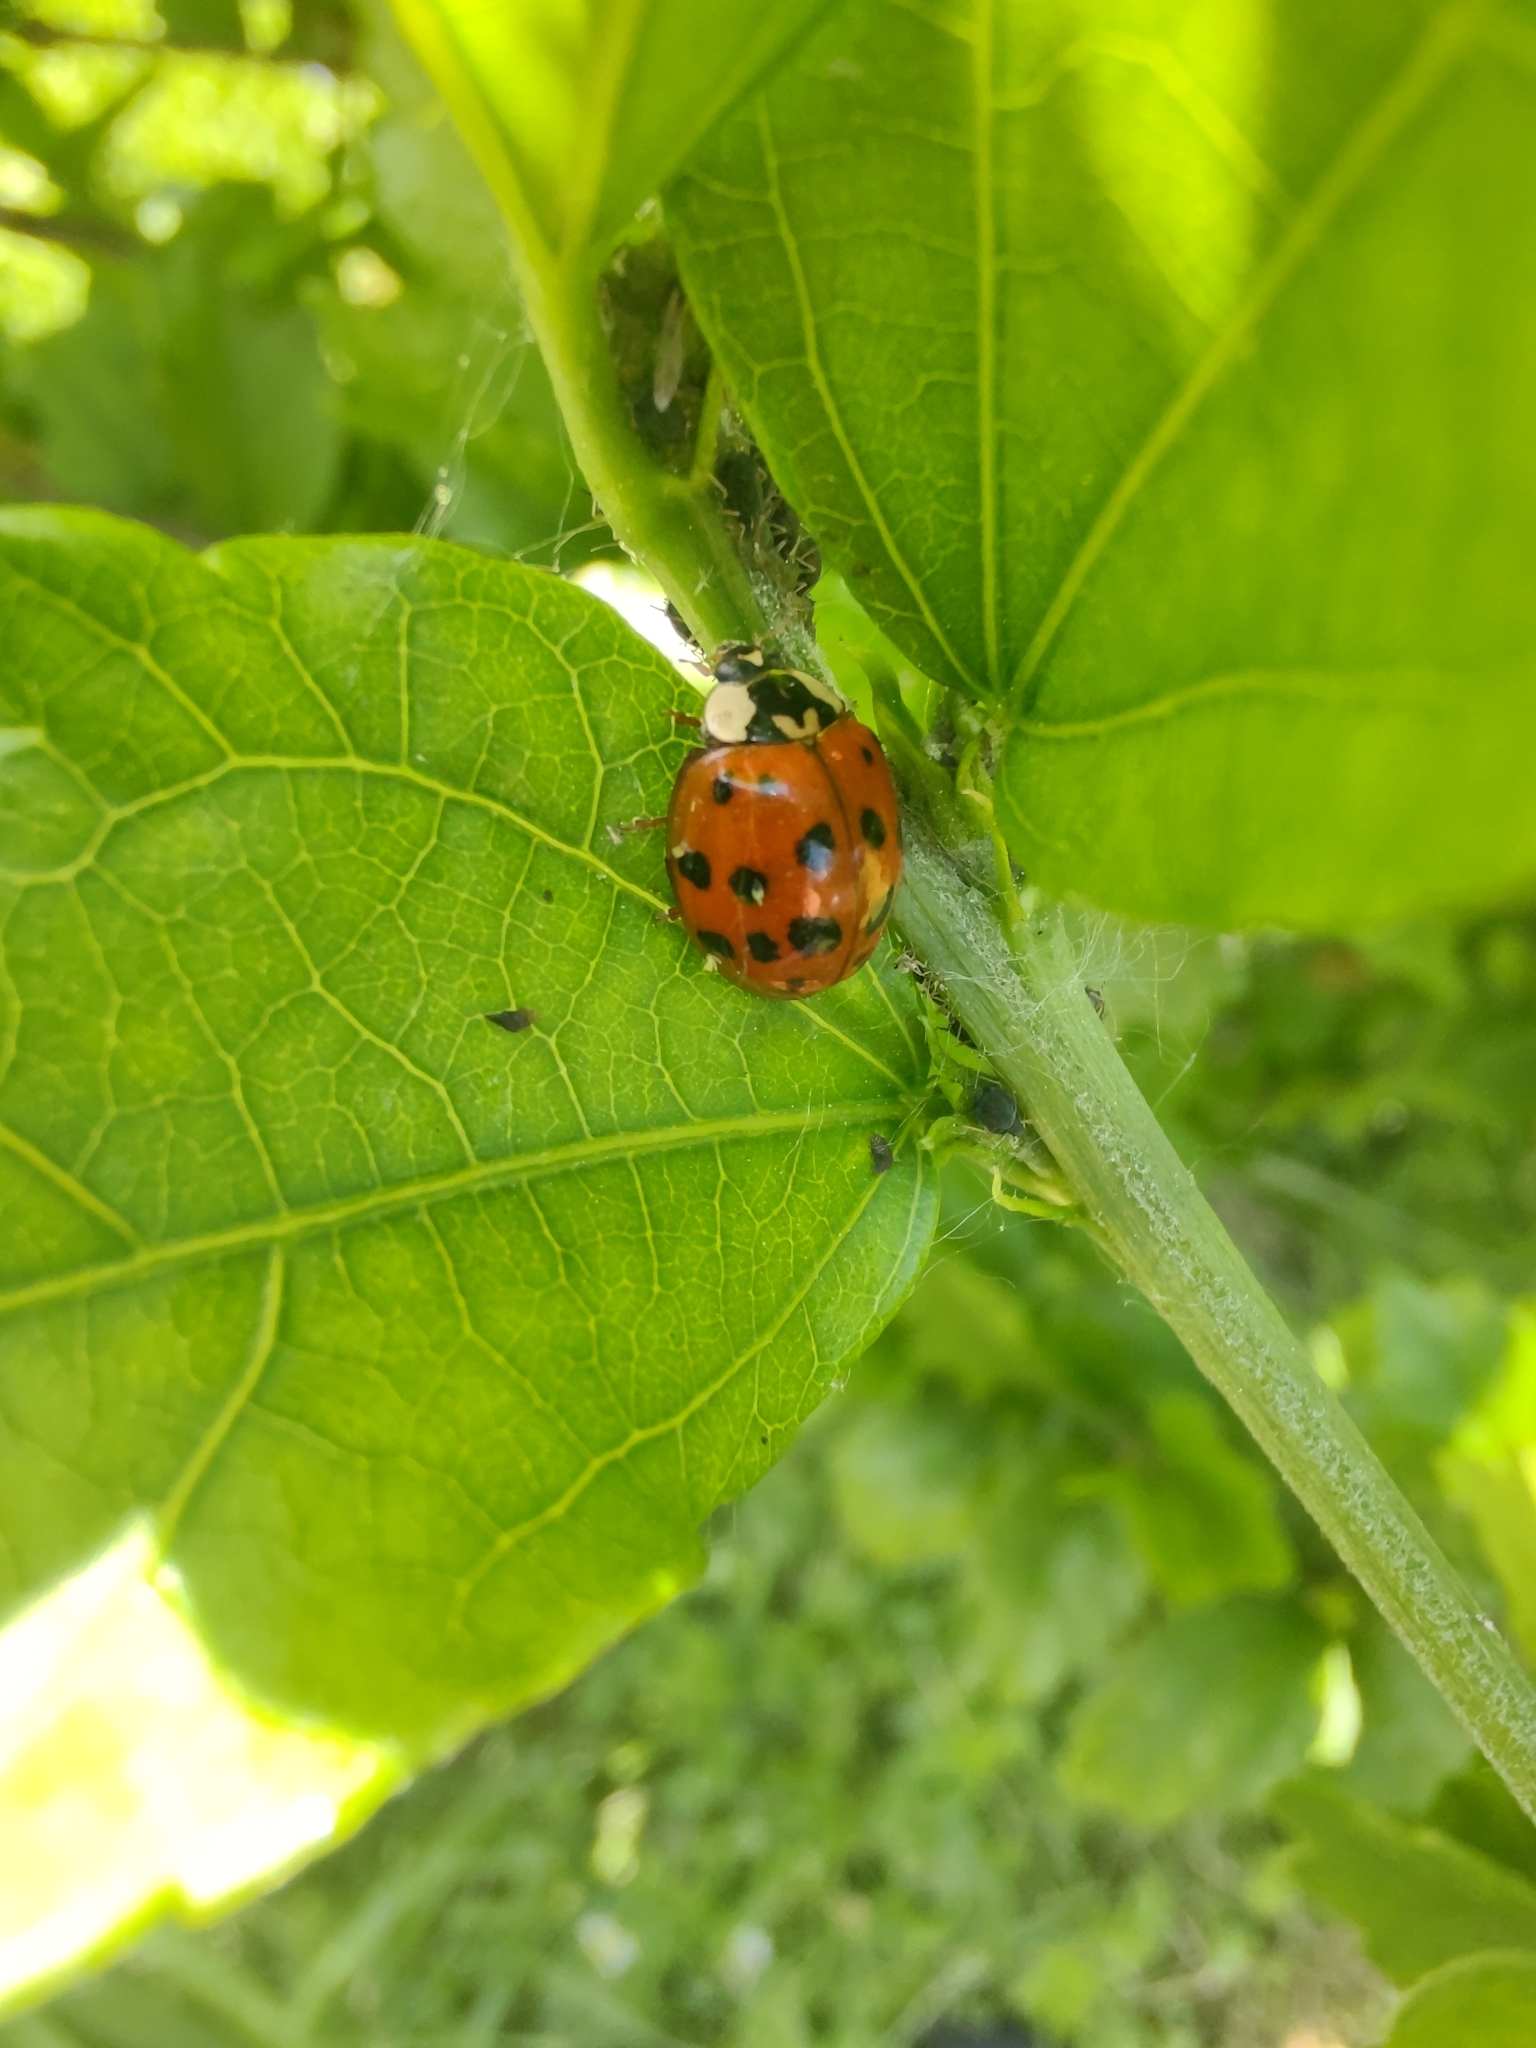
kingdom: Animalia
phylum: Arthropoda
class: Insecta
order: Coleoptera
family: Coccinellidae
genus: Harmonia
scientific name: Harmonia axyridis
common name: Harlequin ladybird
